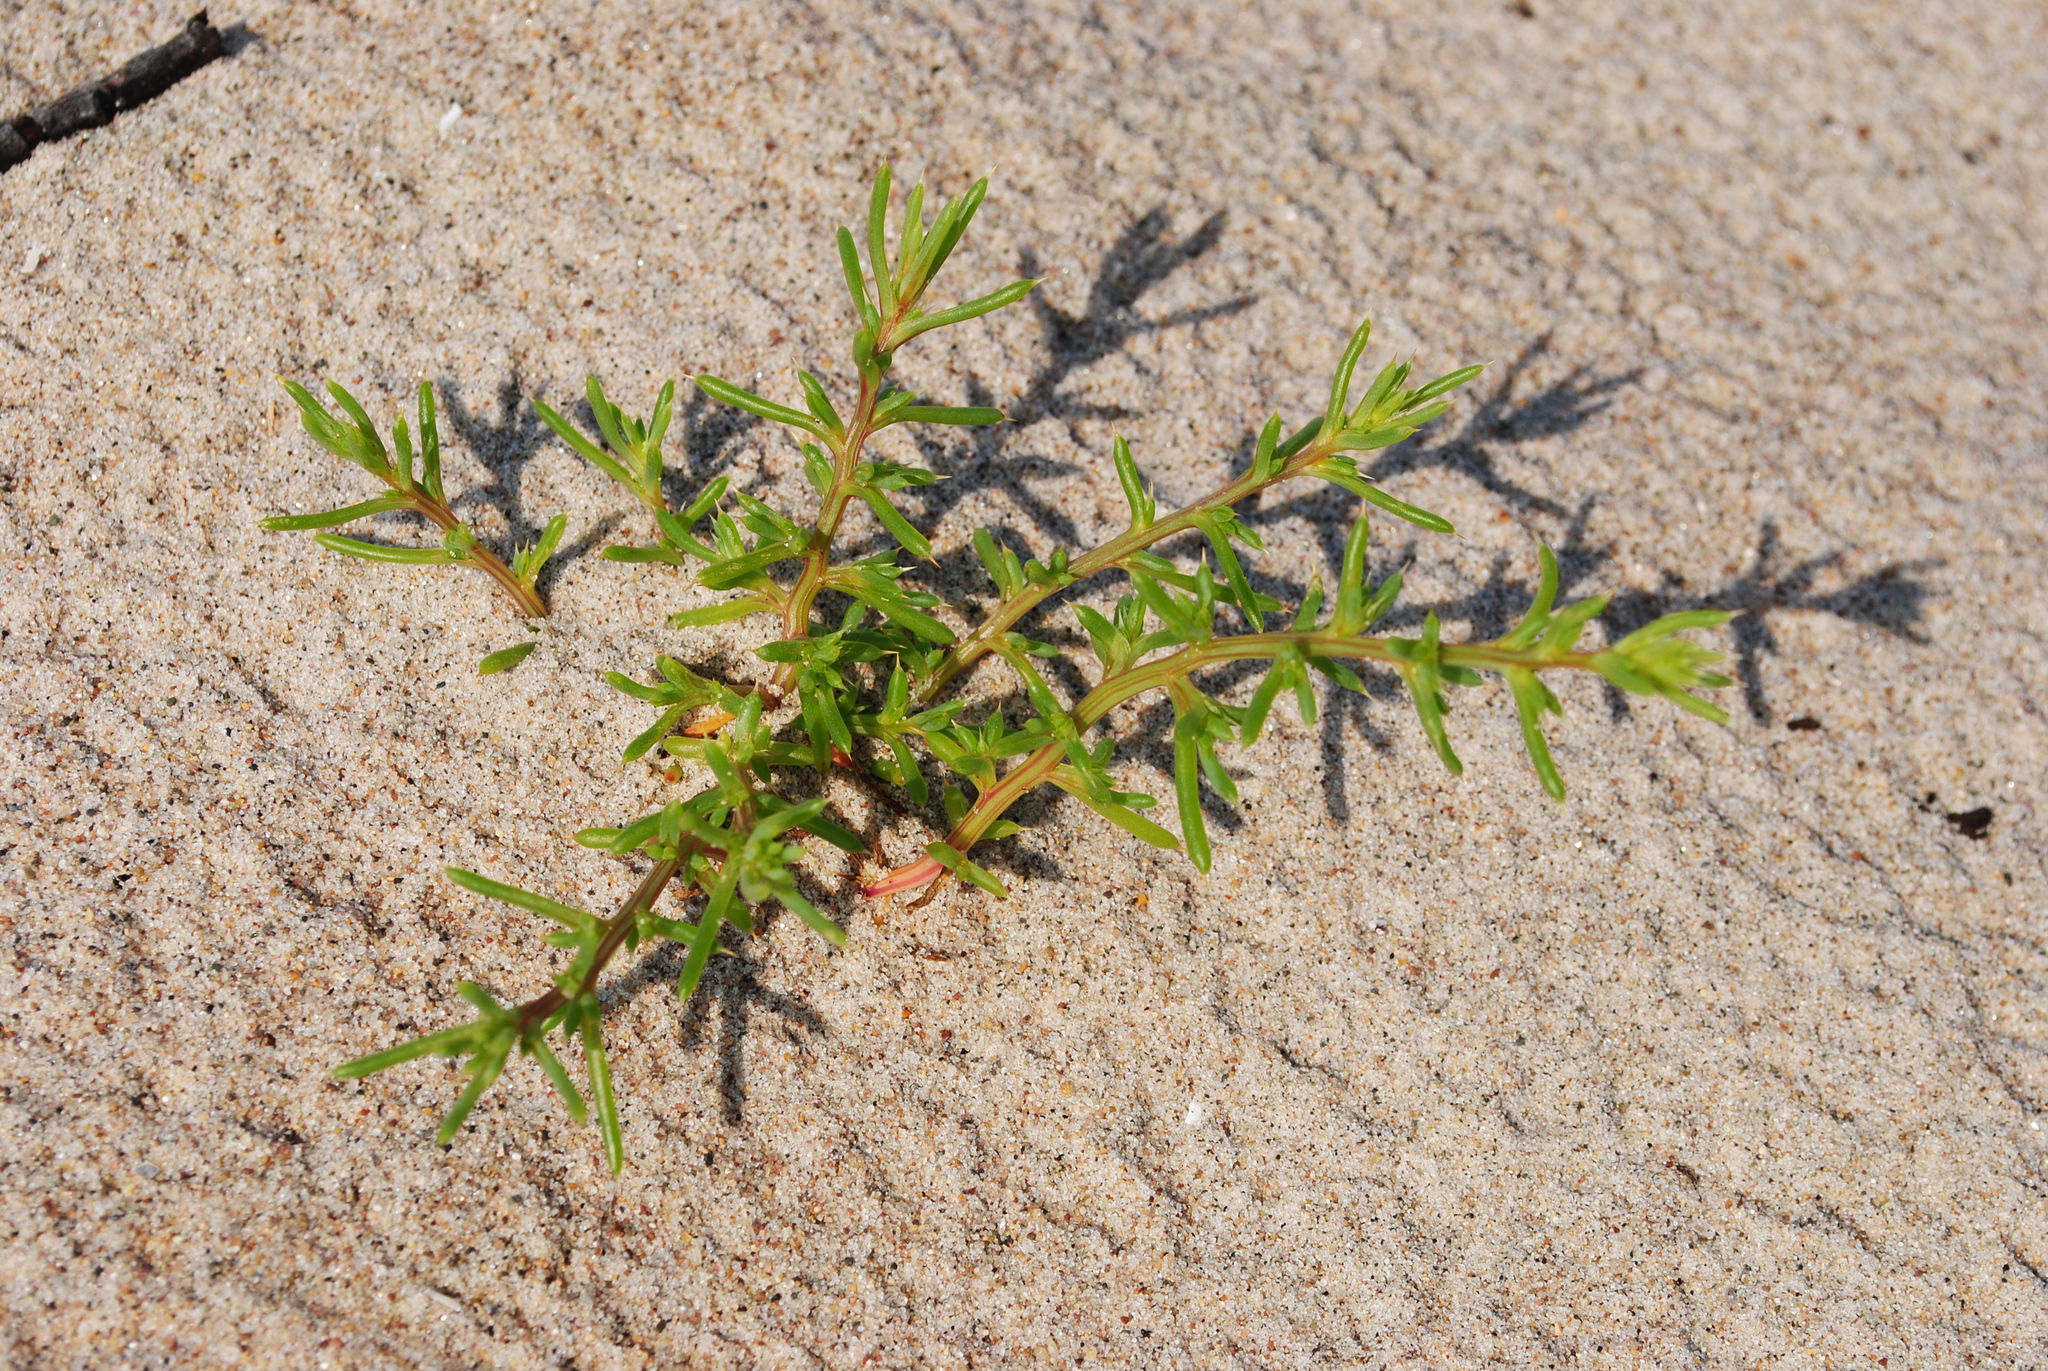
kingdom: Plantae
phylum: Tracheophyta
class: Magnoliopsida
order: Caryophyllales
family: Amaranthaceae
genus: Salsola
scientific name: Salsola kali
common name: Saltwort
